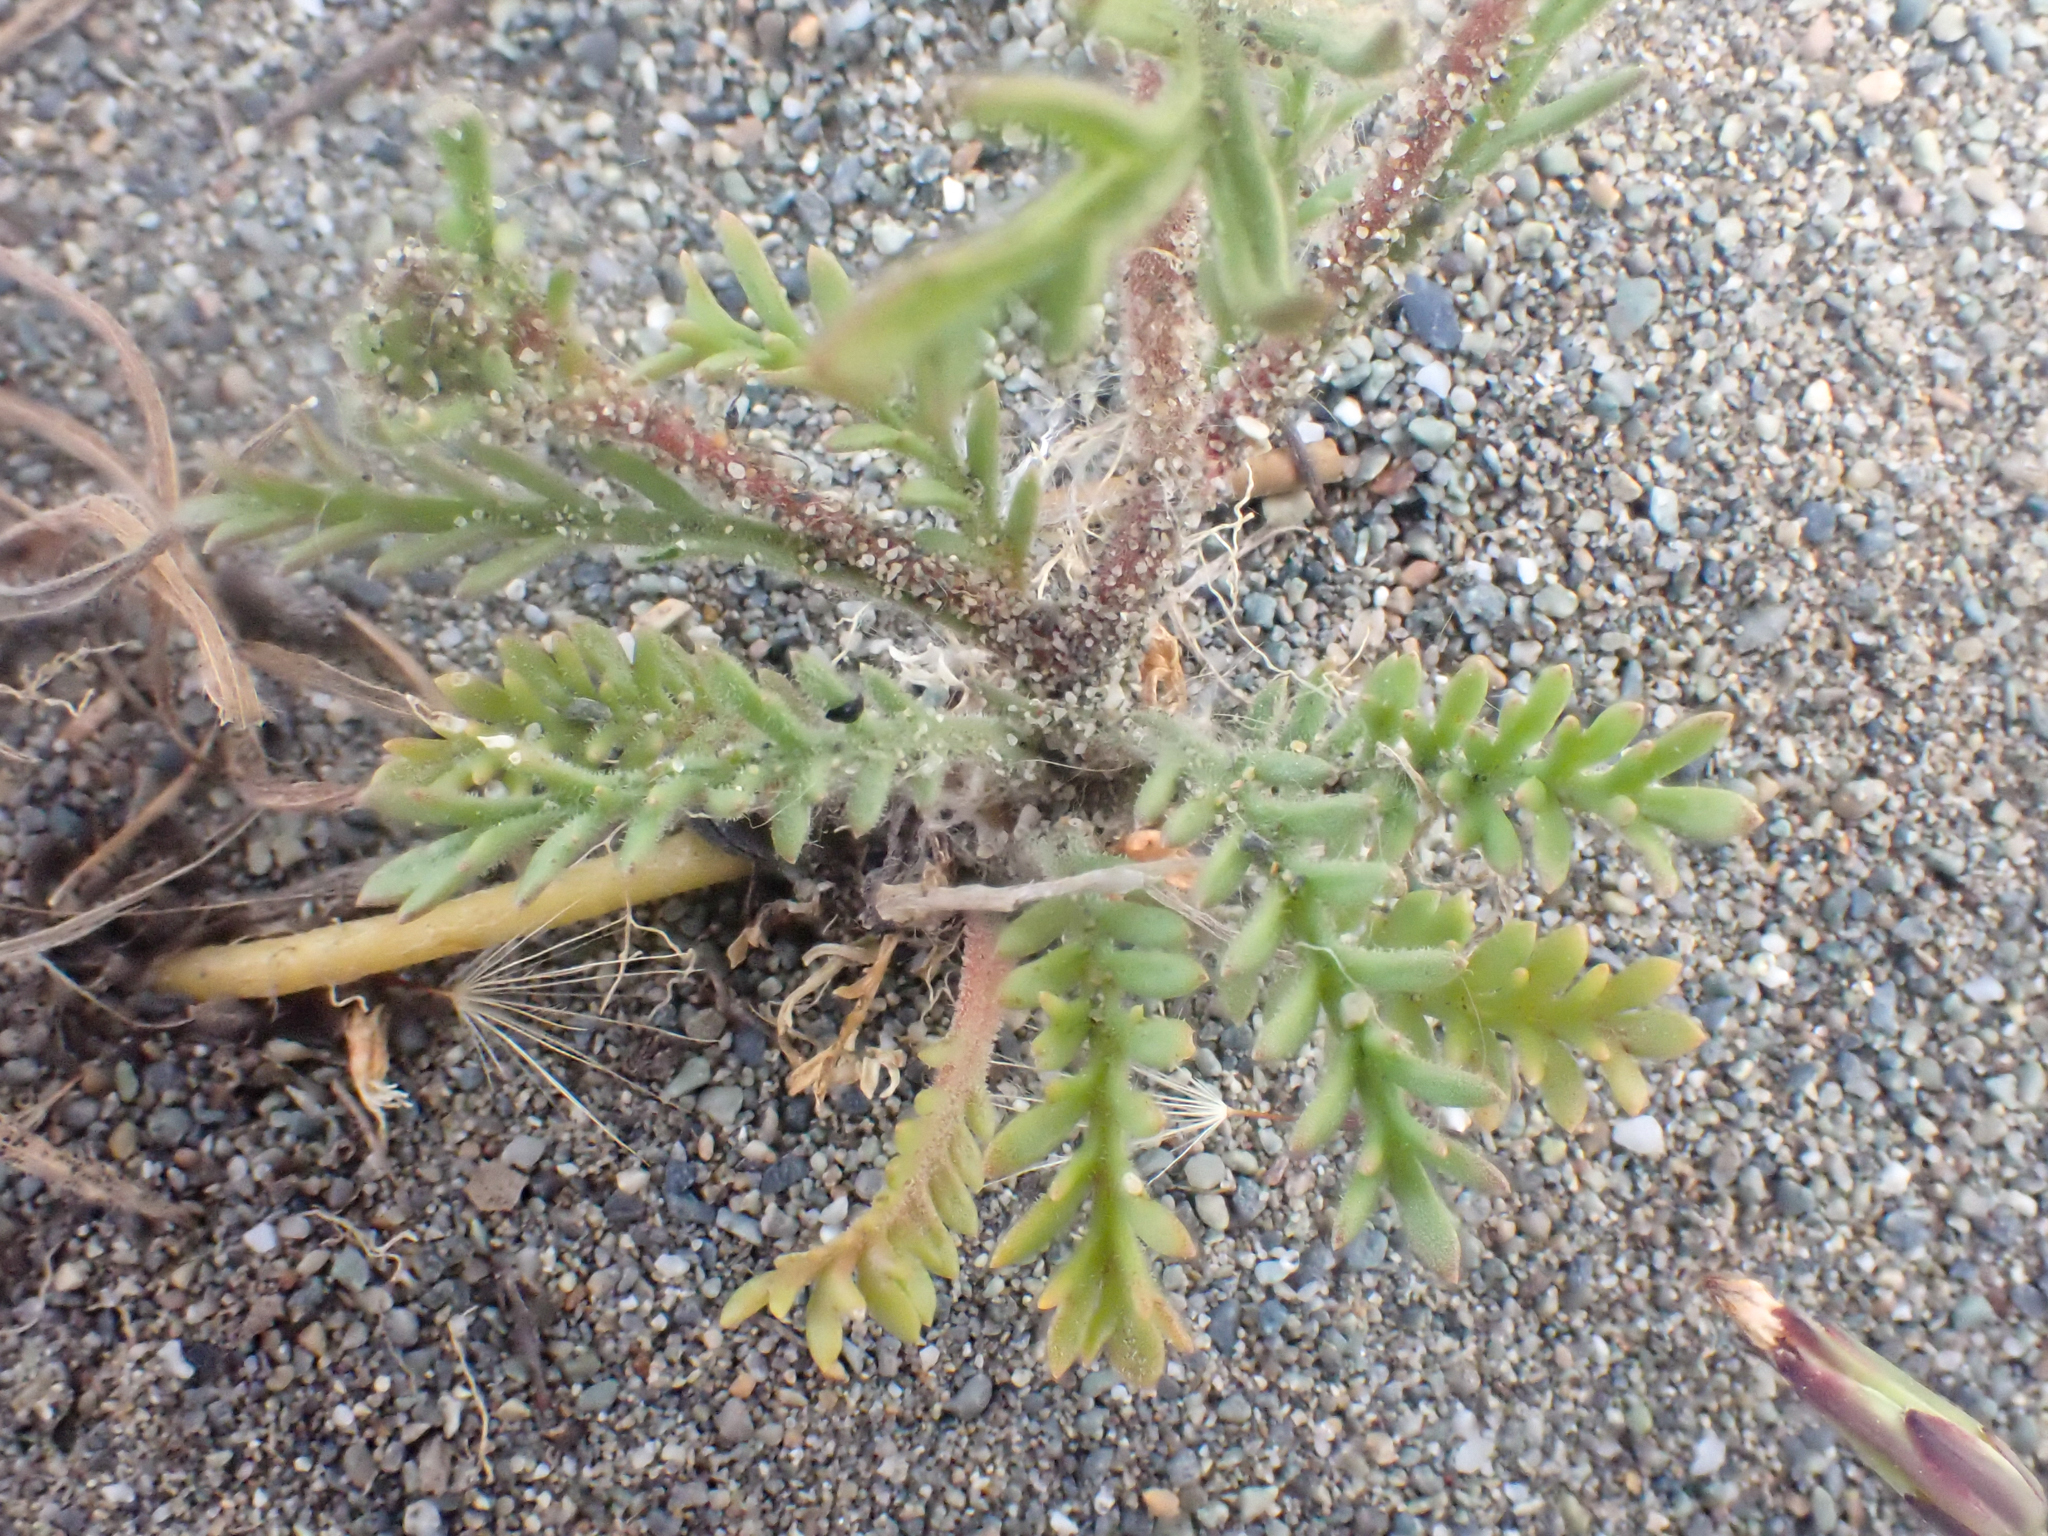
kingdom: Plantae
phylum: Tracheophyta
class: Magnoliopsida
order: Ericales
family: Polemoniaceae
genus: Gilia
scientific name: Gilia millefoliata
